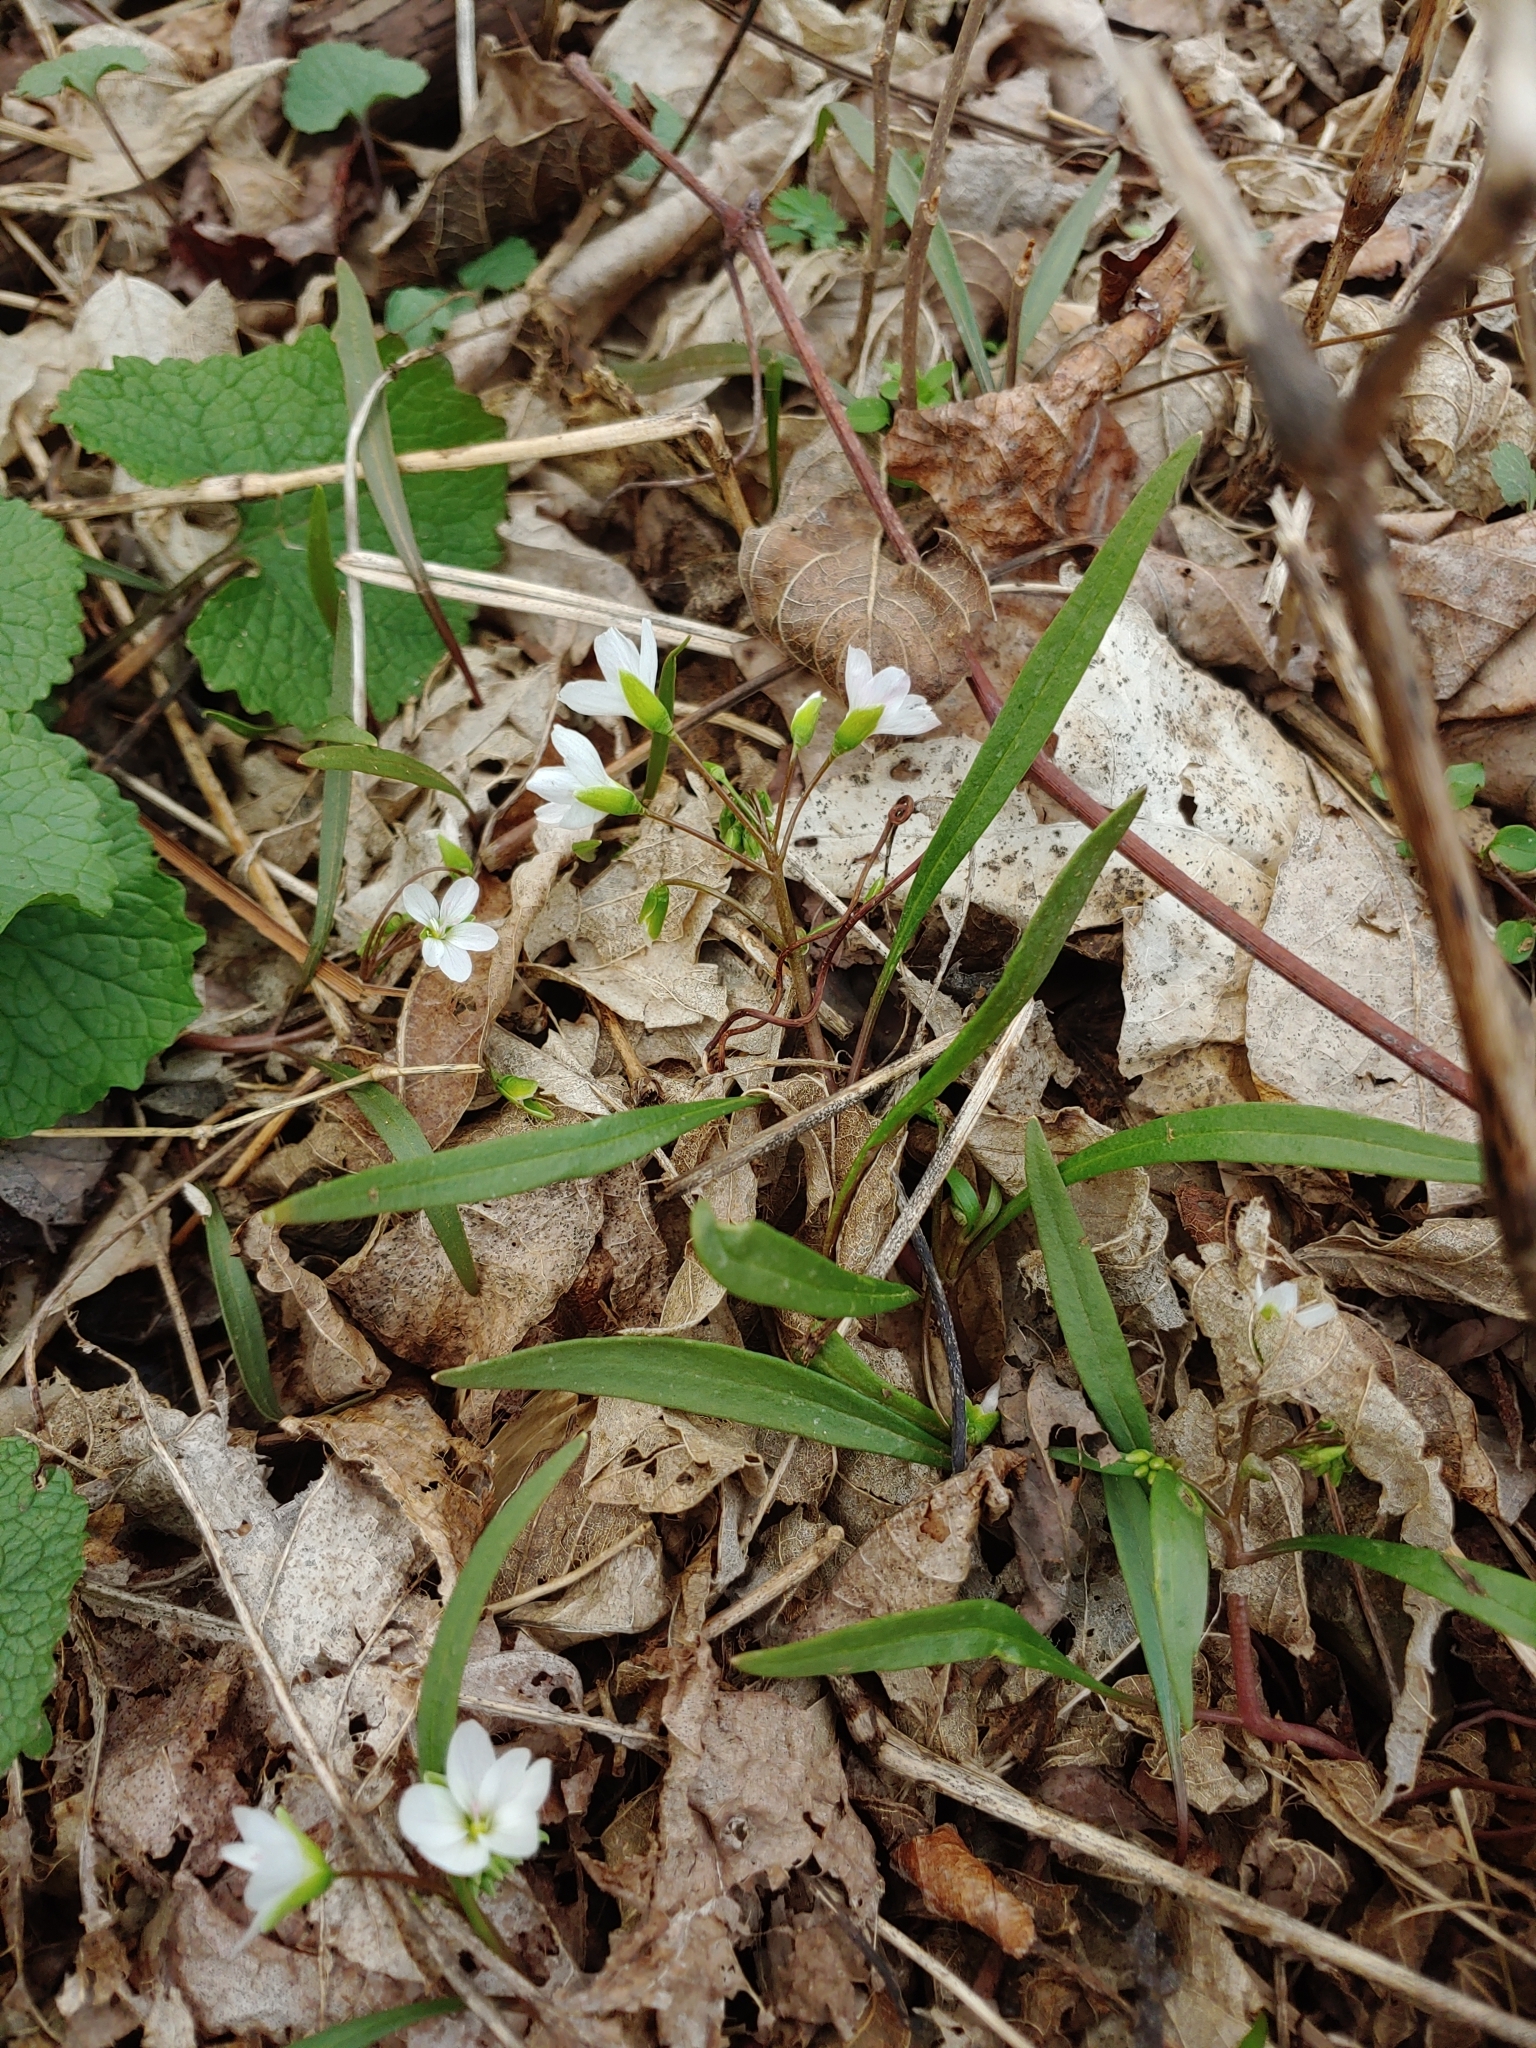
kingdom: Plantae
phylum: Tracheophyta
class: Magnoliopsida
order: Caryophyllales
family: Montiaceae
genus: Claytonia
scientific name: Claytonia virginica
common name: Virginia springbeauty
